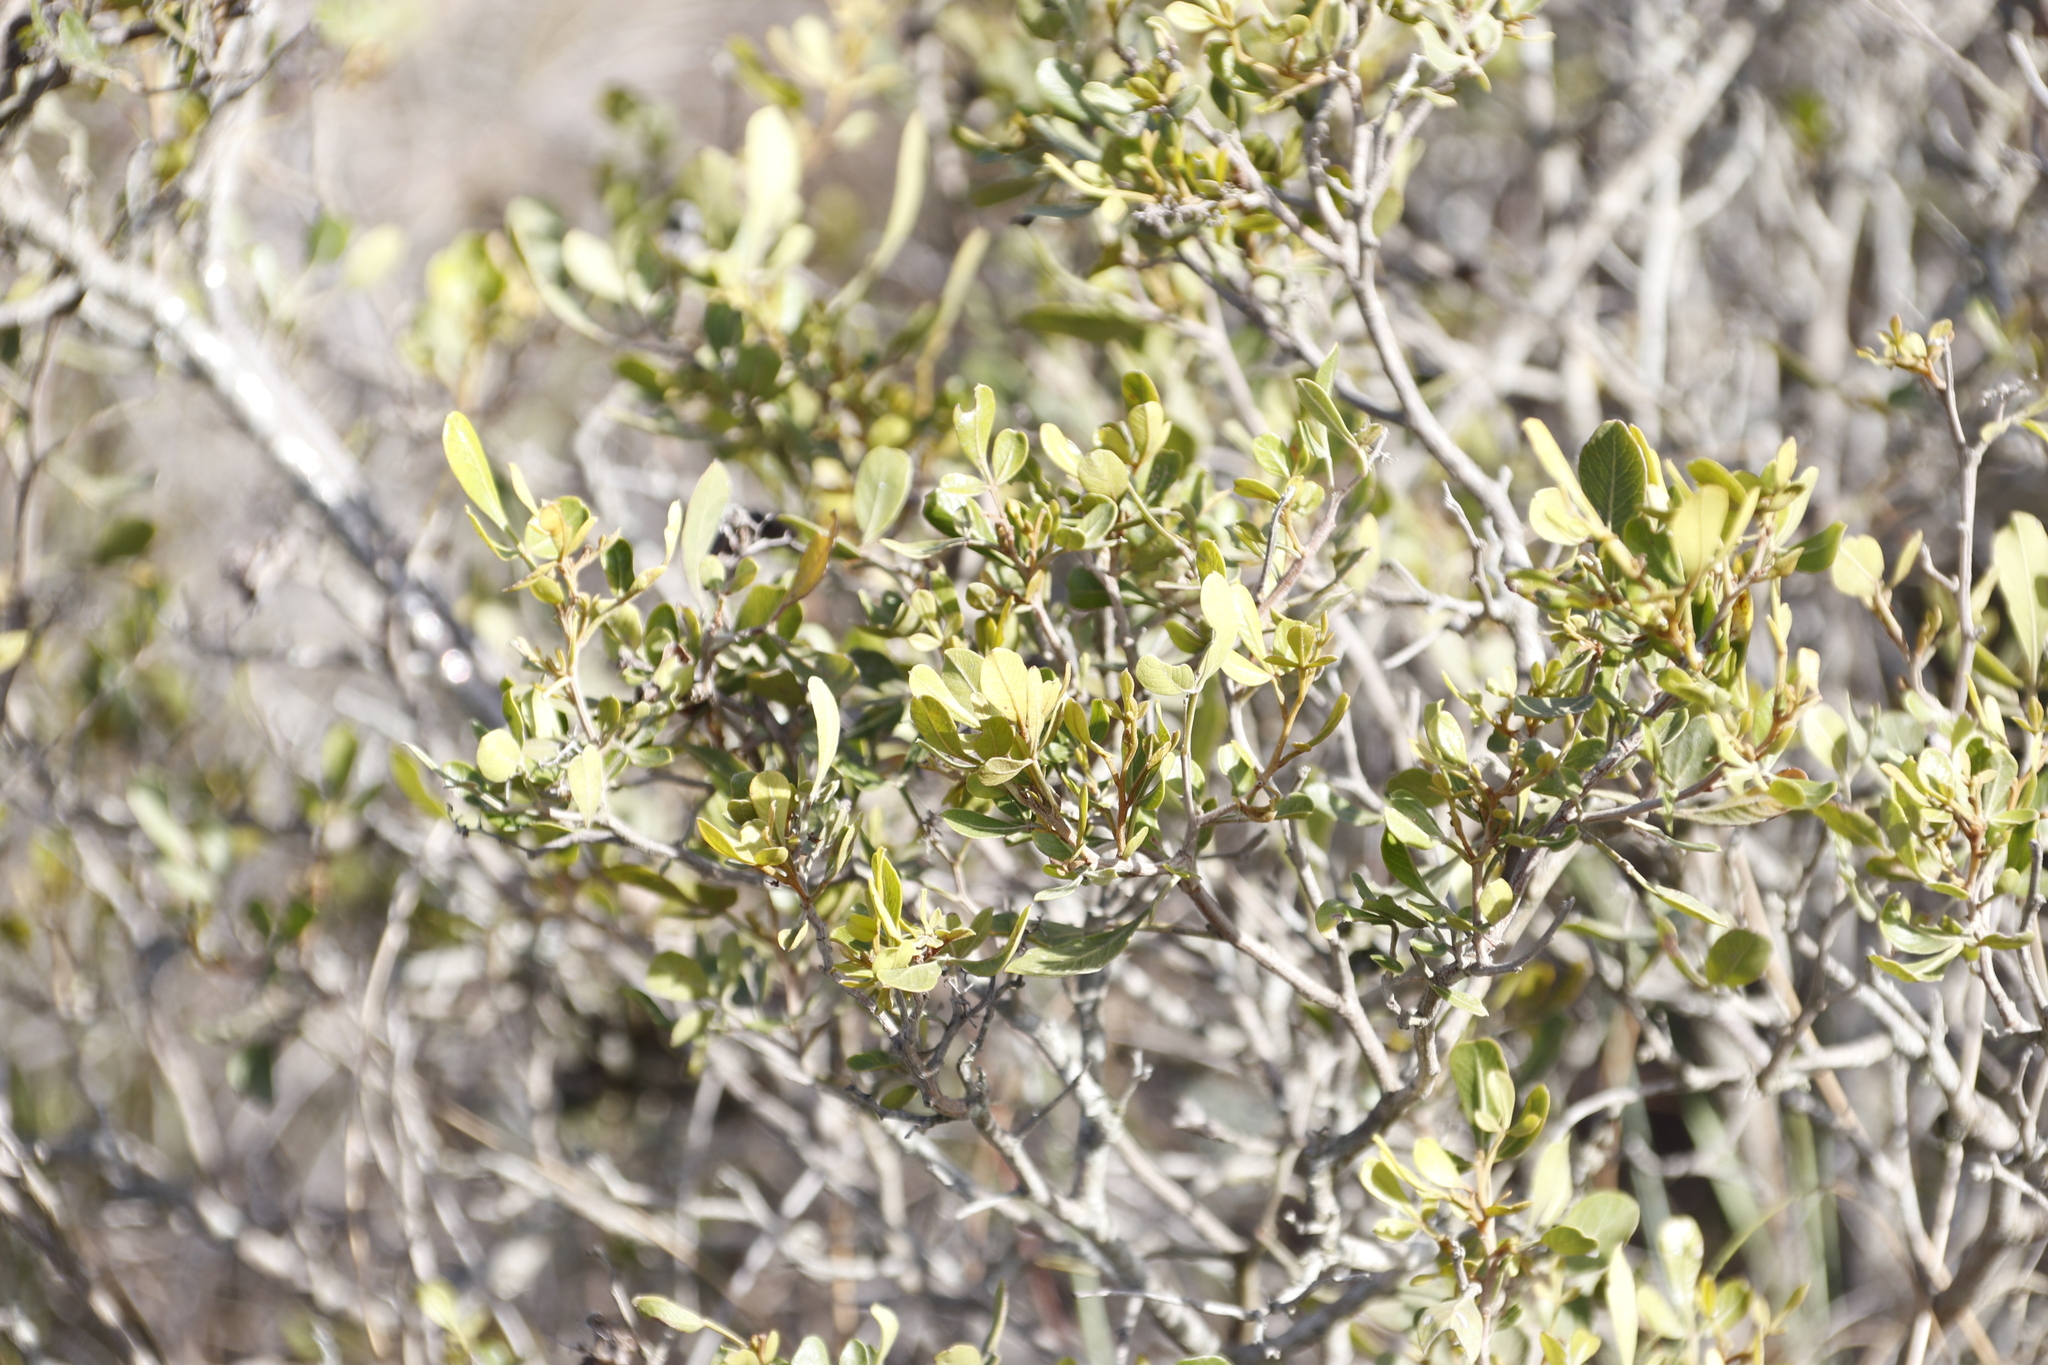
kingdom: Plantae
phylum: Tracheophyta
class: Magnoliopsida
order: Sapindales
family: Anacardiaceae
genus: Searsia
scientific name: Searsia pallens
